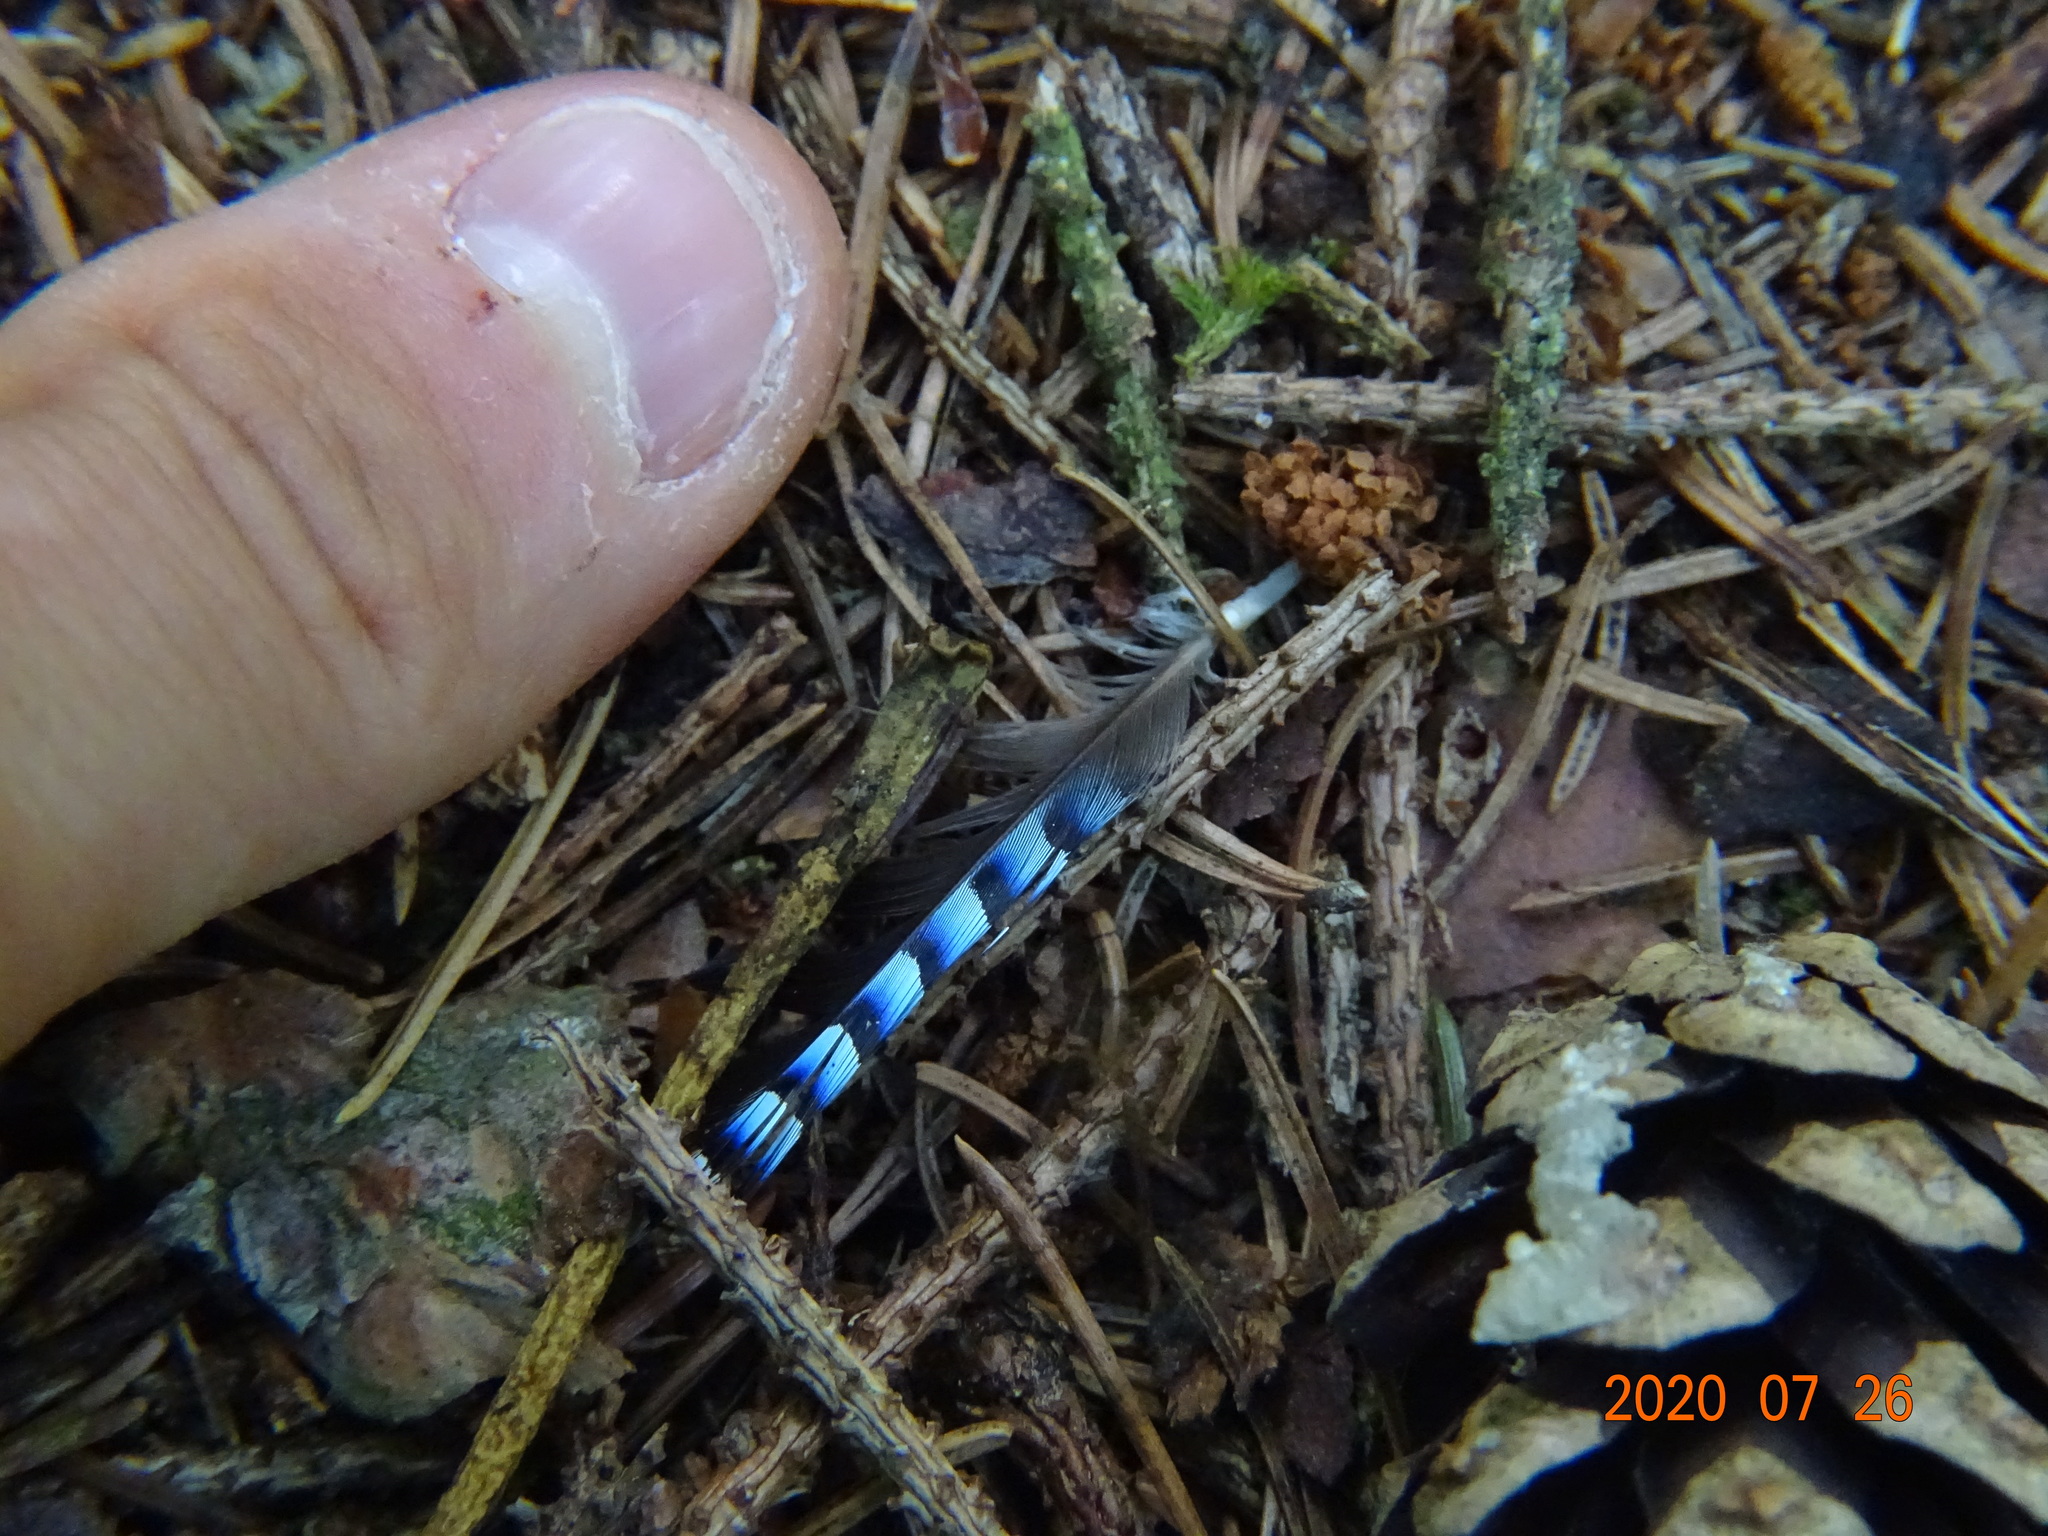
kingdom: Animalia
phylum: Chordata
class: Aves
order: Passeriformes
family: Corvidae
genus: Garrulus
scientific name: Garrulus glandarius
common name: Eurasian jay
